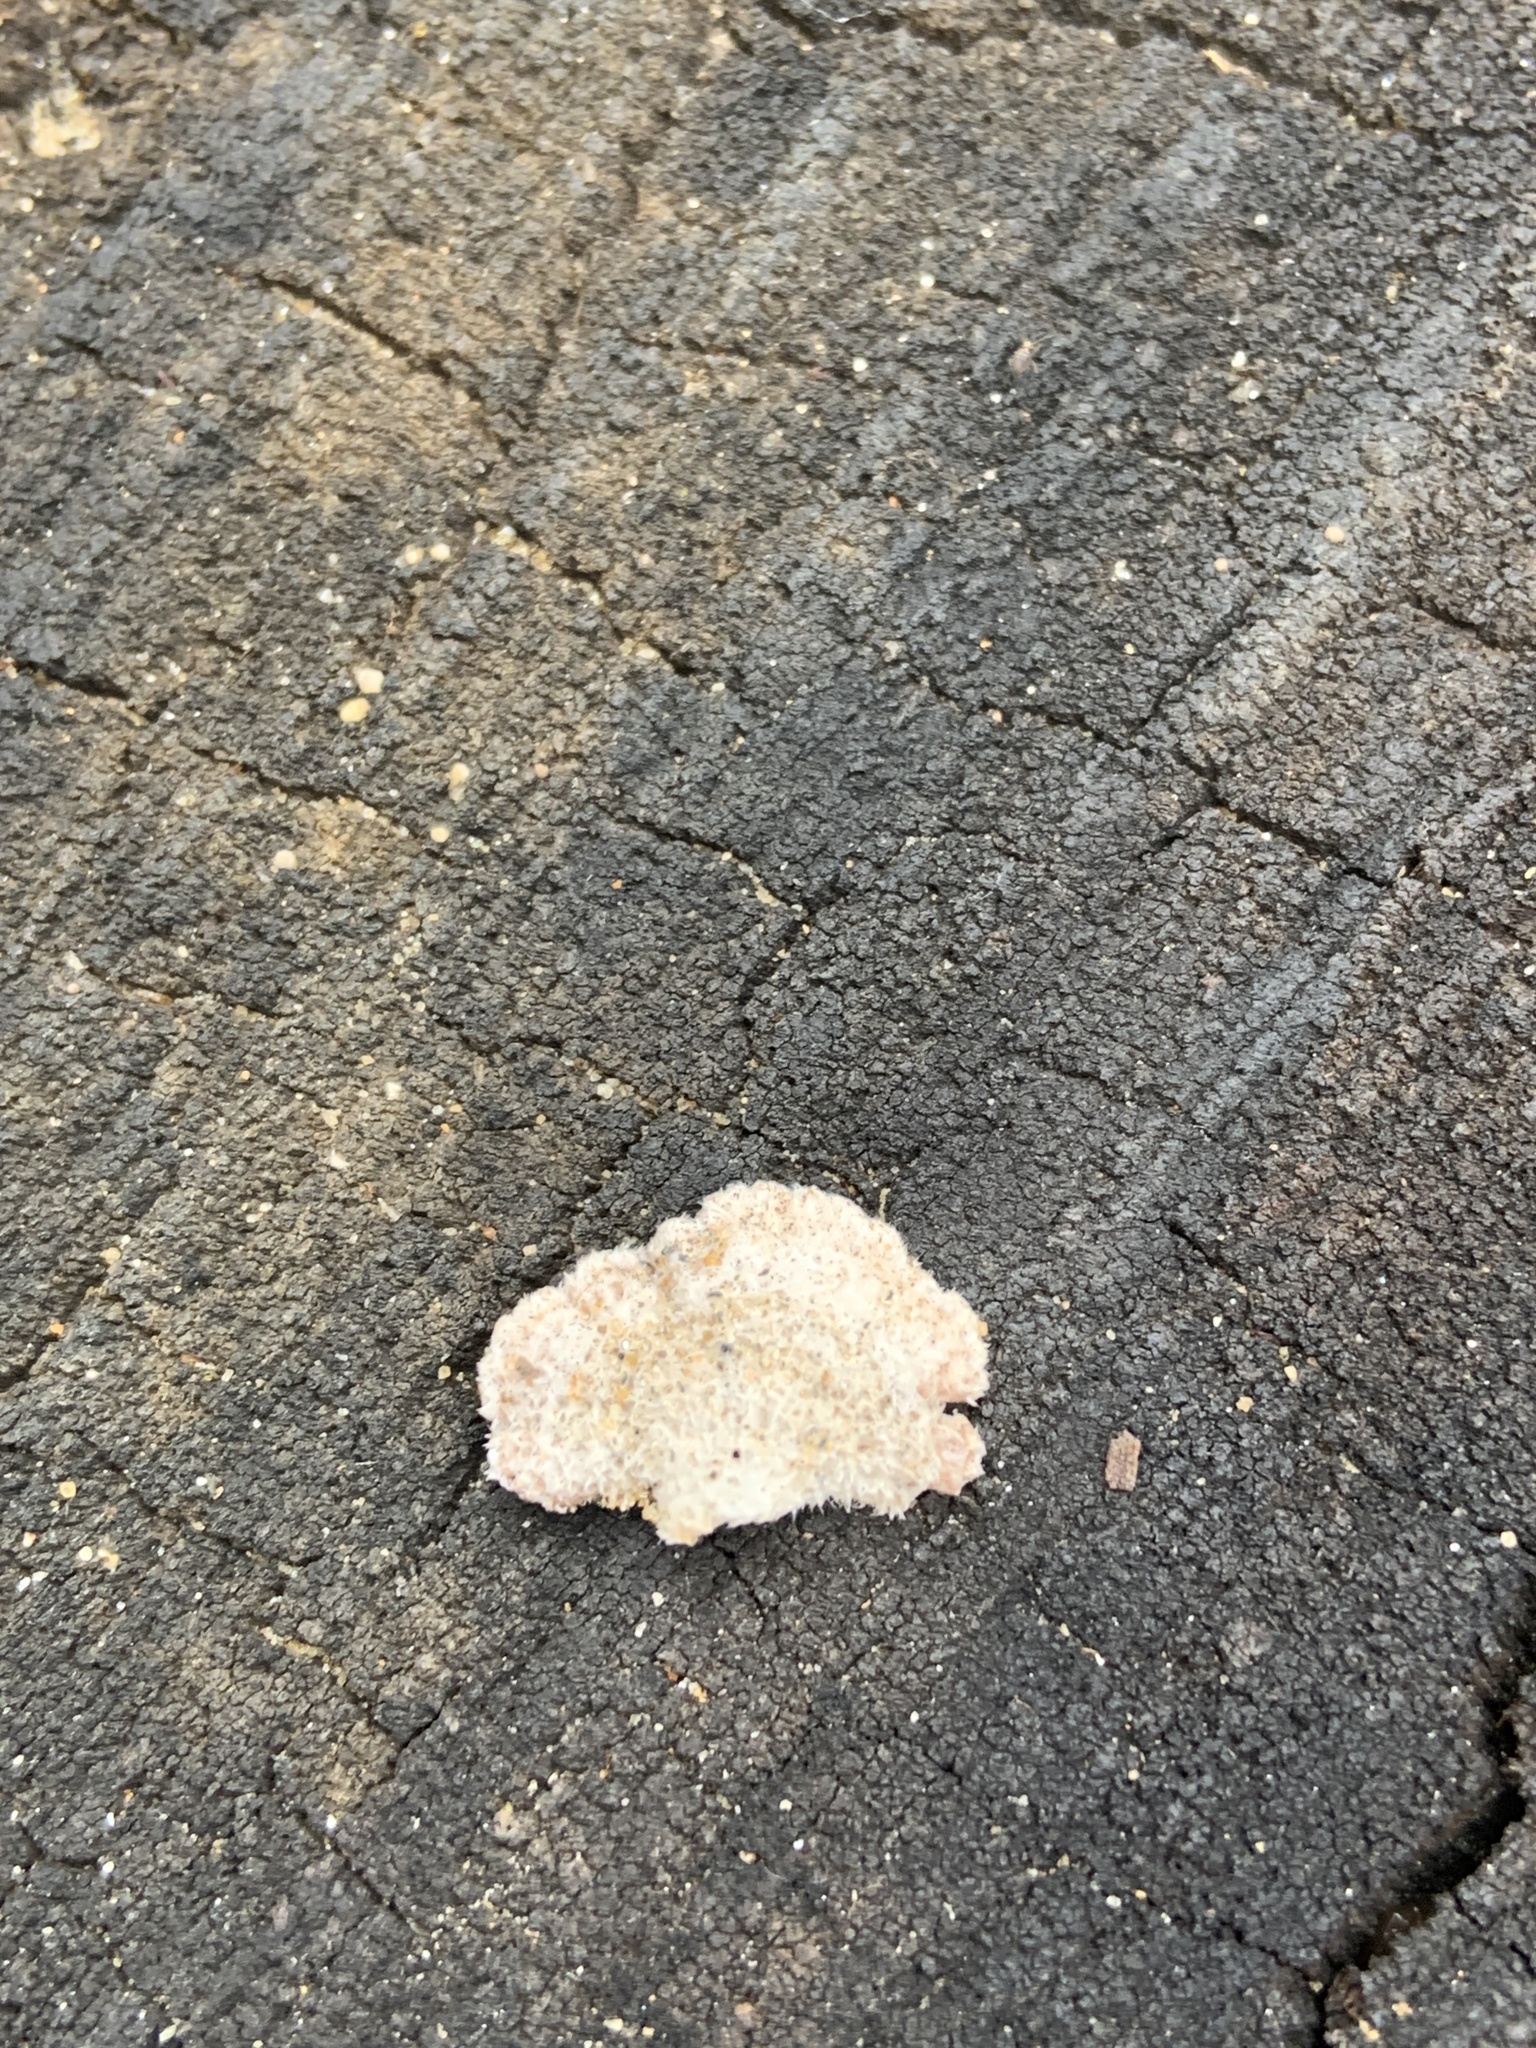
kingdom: Fungi
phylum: Basidiomycota
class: Agaricomycetes
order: Agaricales
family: Schizophyllaceae
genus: Schizophyllum
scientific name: Schizophyllum commune
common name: Common porecrust
